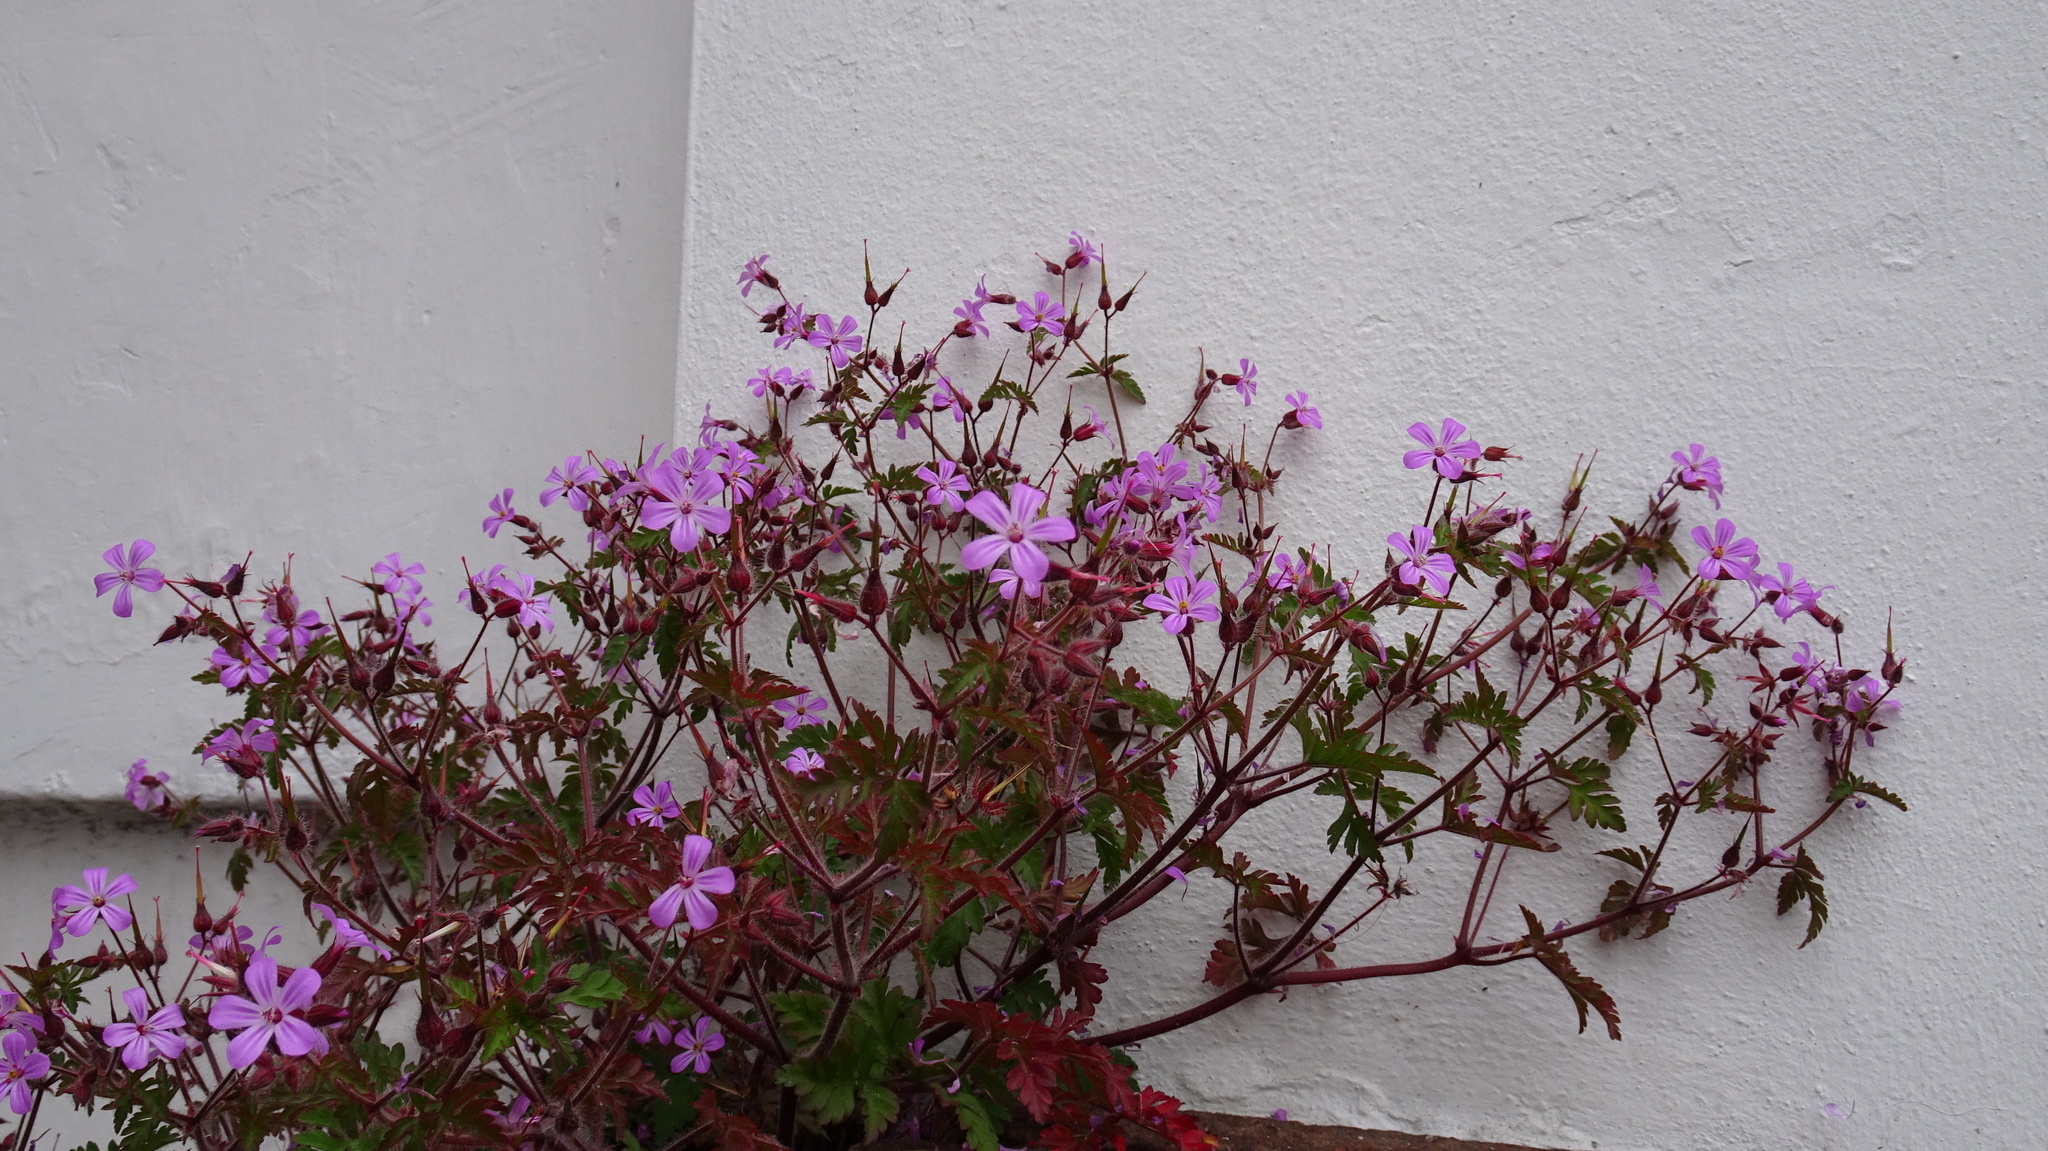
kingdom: Plantae
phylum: Tracheophyta
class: Magnoliopsida
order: Geraniales
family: Geraniaceae
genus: Geranium
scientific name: Geranium robertianum
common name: Herb-robert
